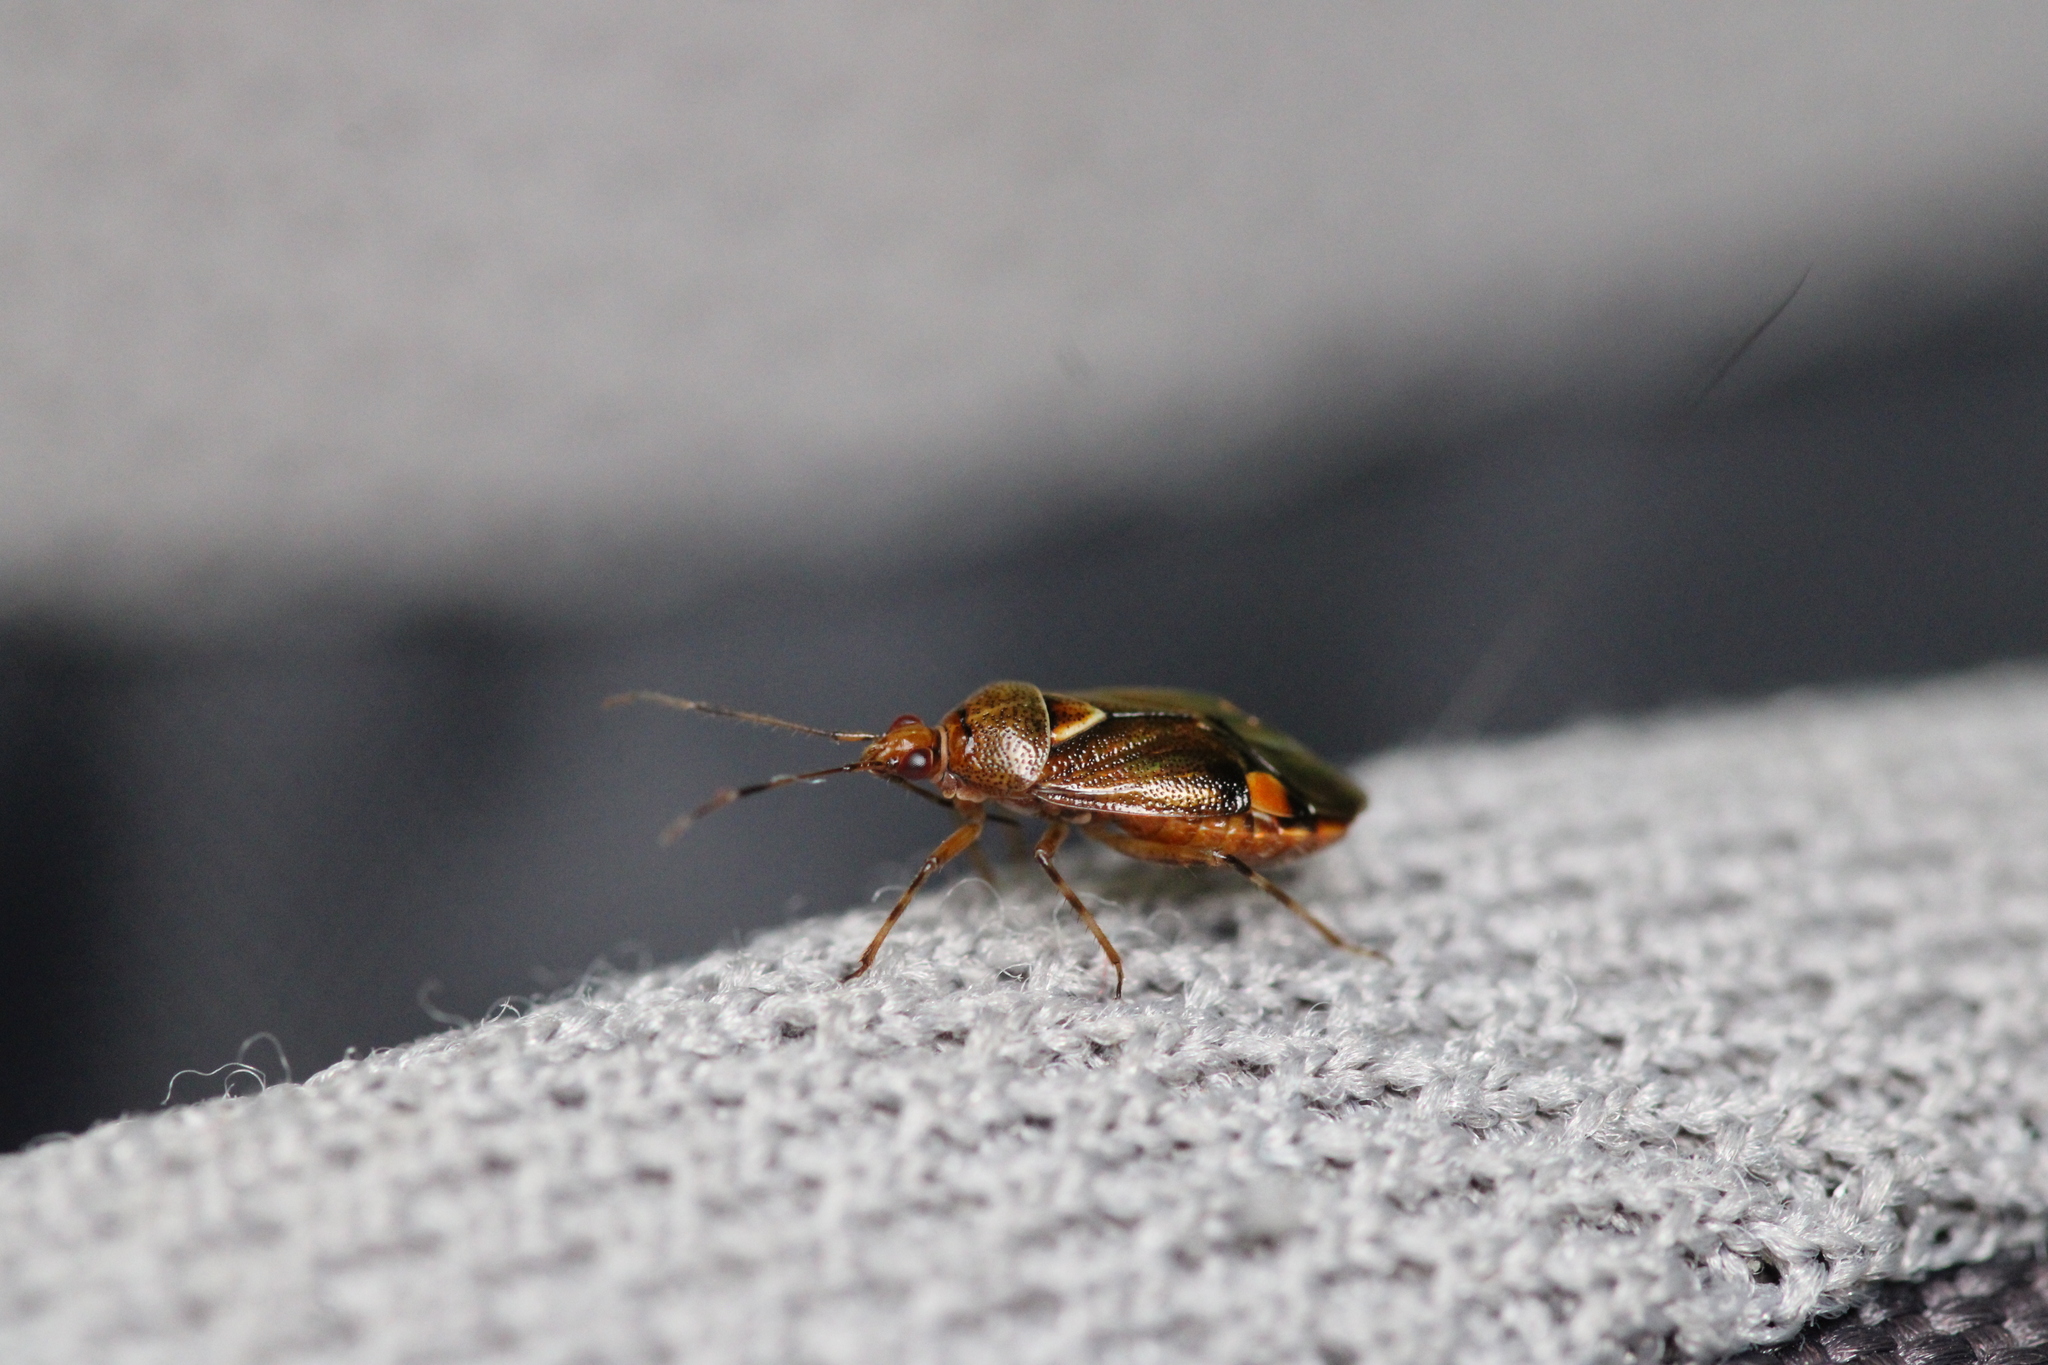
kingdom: Animalia
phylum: Arthropoda
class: Insecta
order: Hemiptera
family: Miridae
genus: Deraeocoris
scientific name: Deraeocoris flavilinea
